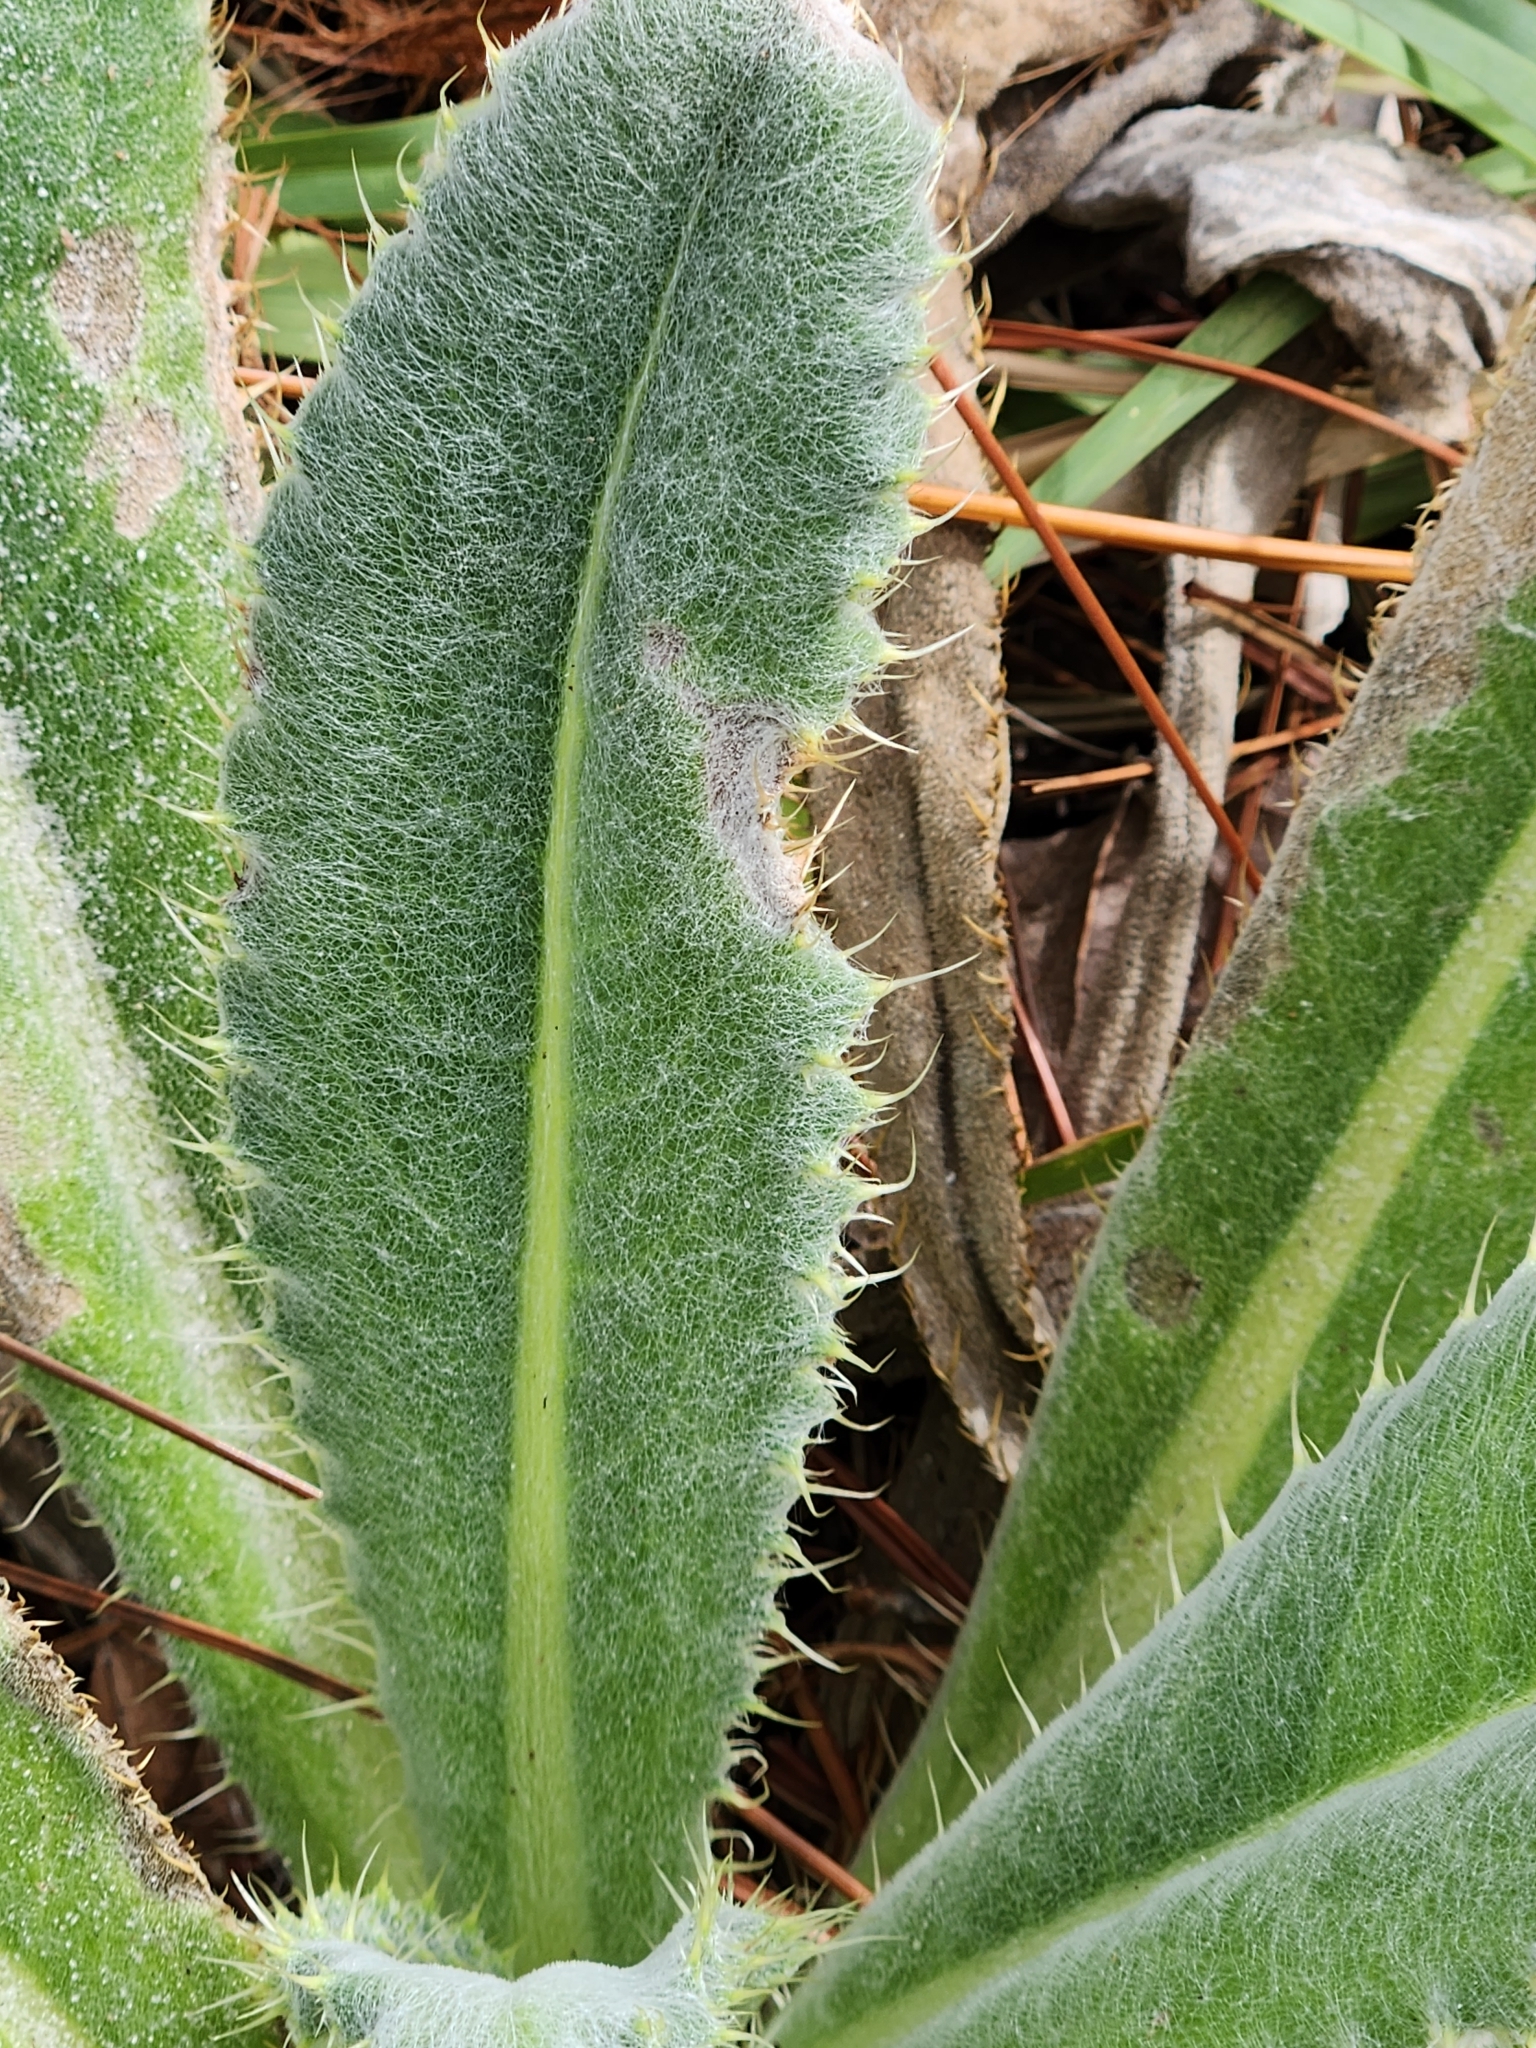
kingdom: Plantae
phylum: Tracheophyta
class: Magnoliopsida
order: Asterales
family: Asteraceae
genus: Cirsium
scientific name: Cirsium horridulum
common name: Bristly thistle
